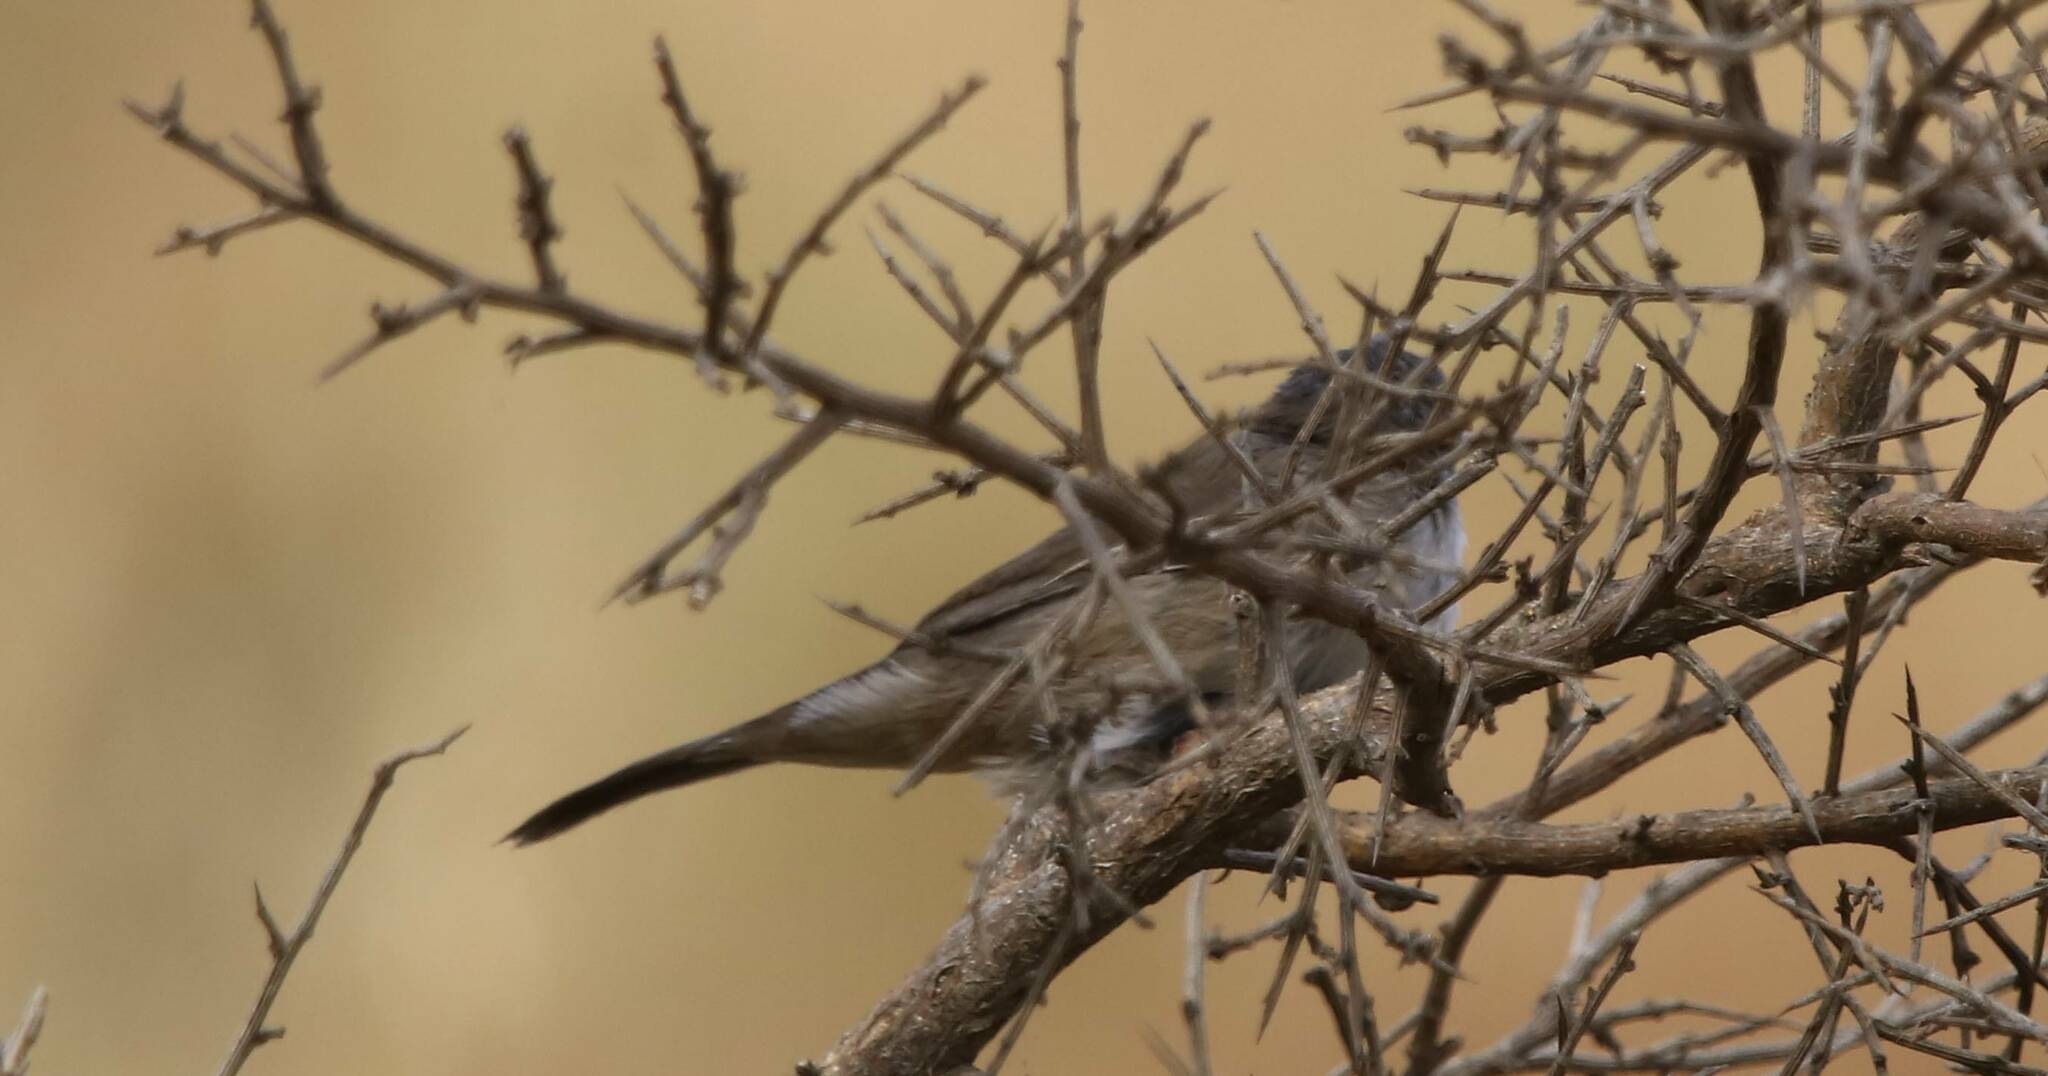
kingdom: Animalia
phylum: Chordata
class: Aves
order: Passeriformes
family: Sylviidae
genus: Curruca
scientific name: Curruca melanocephala
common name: Sardinian warbler
